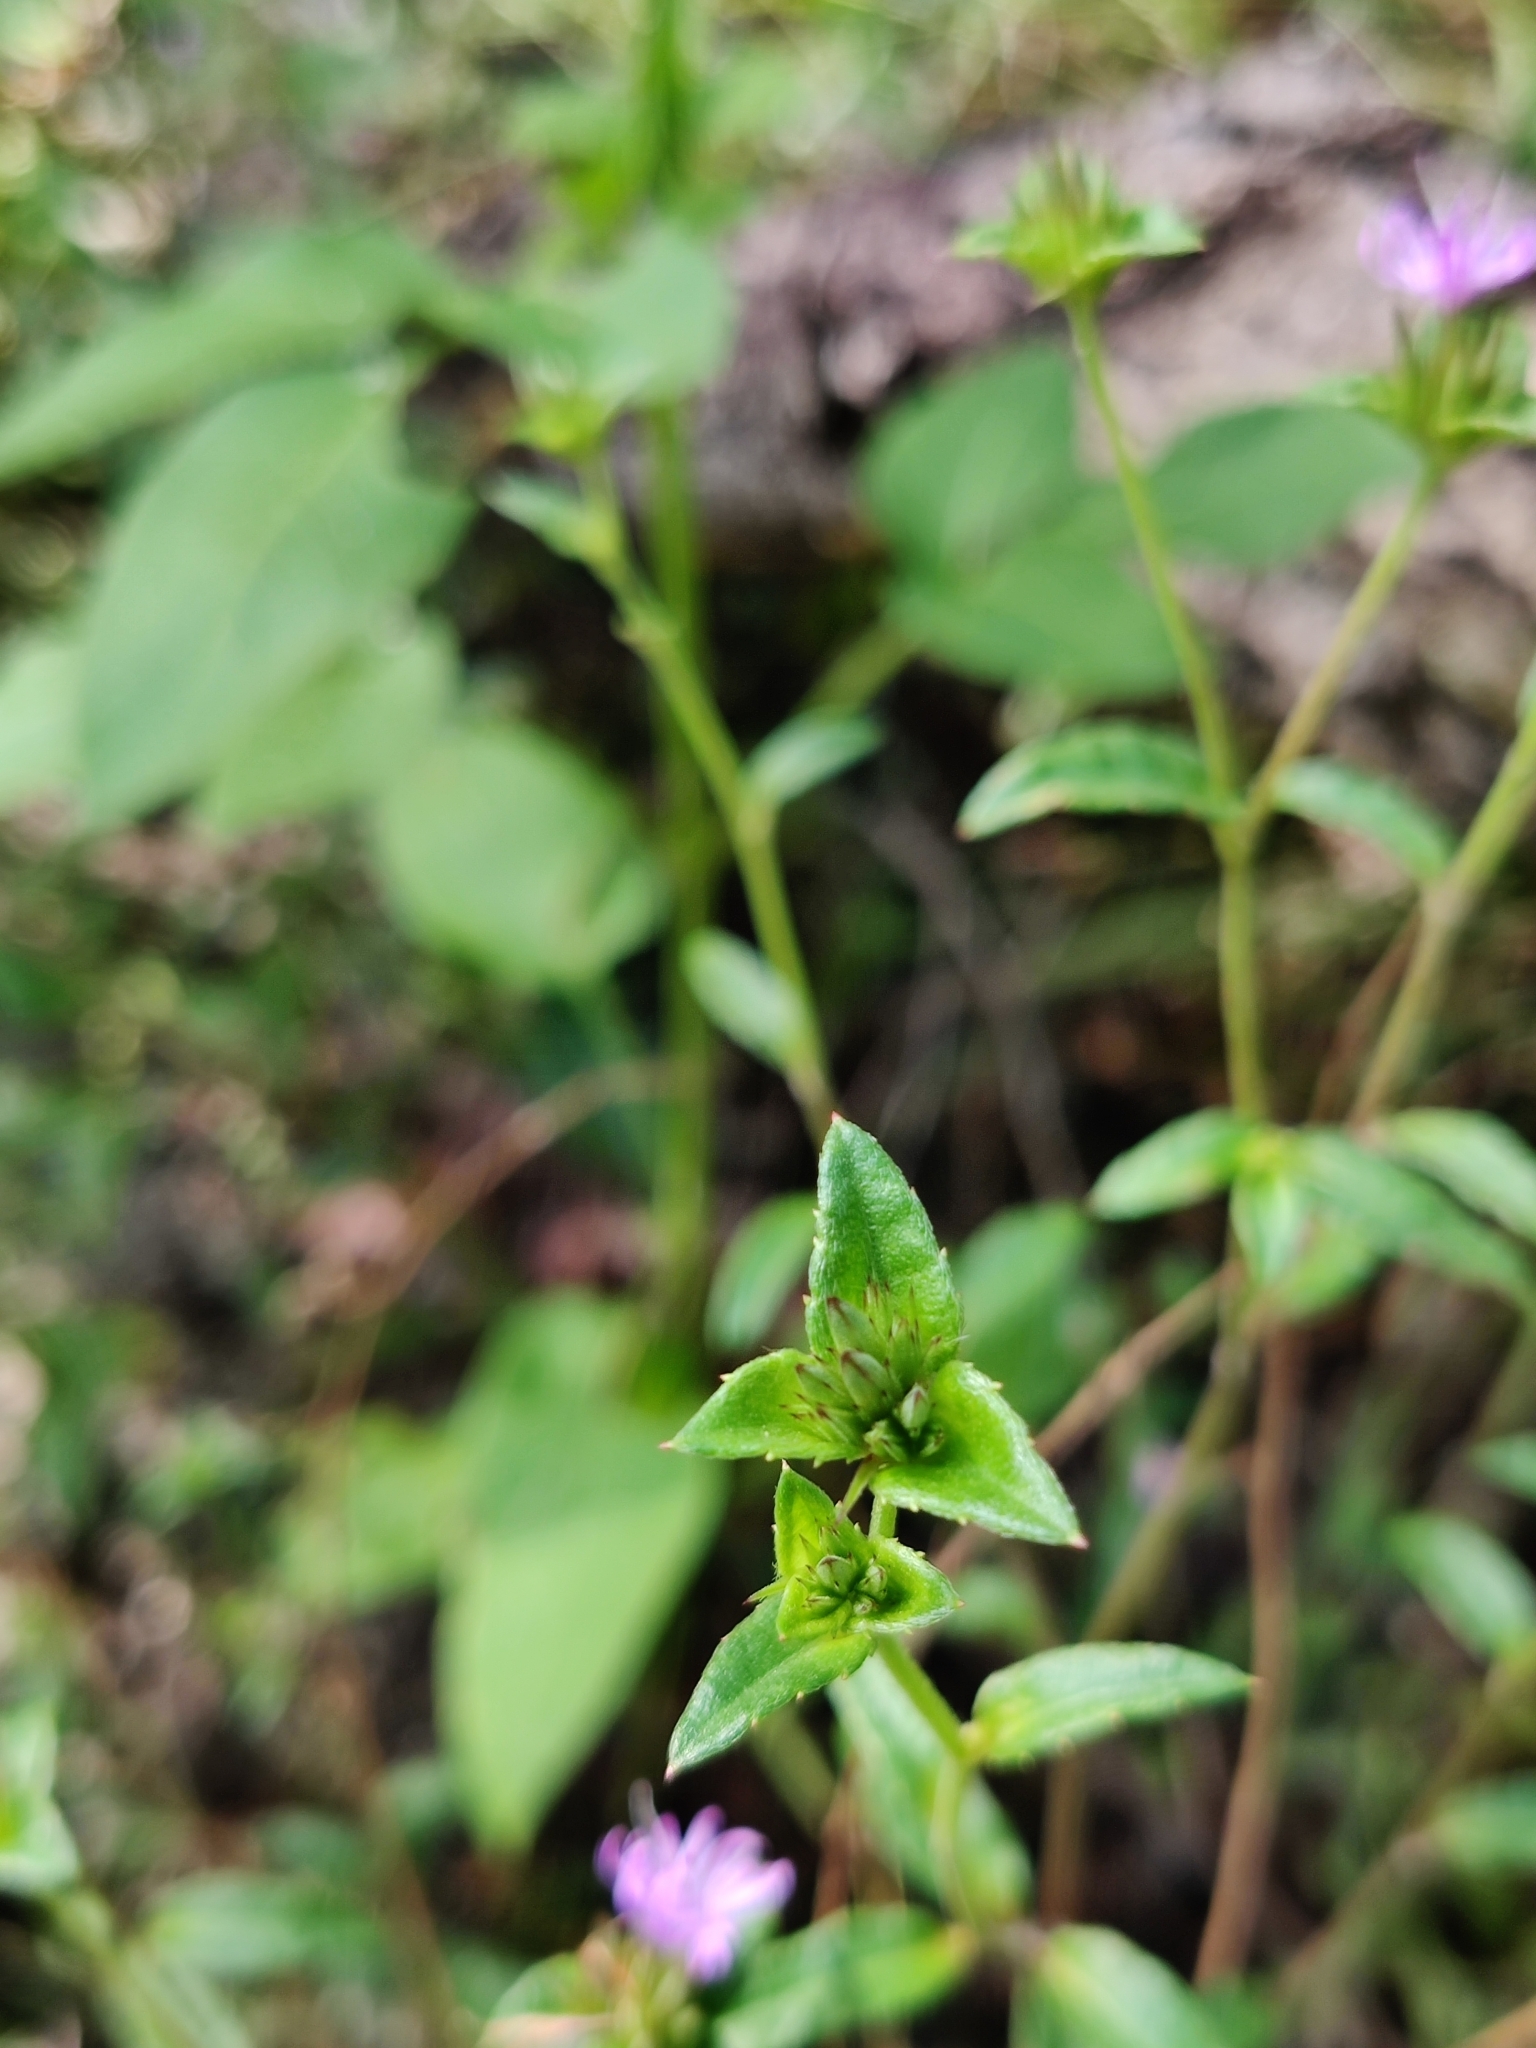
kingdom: Plantae
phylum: Tracheophyta
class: Magnoliopsida
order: Asterales
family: Asteraceae
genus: Elephantopus
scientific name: Elephantopus nudatus
